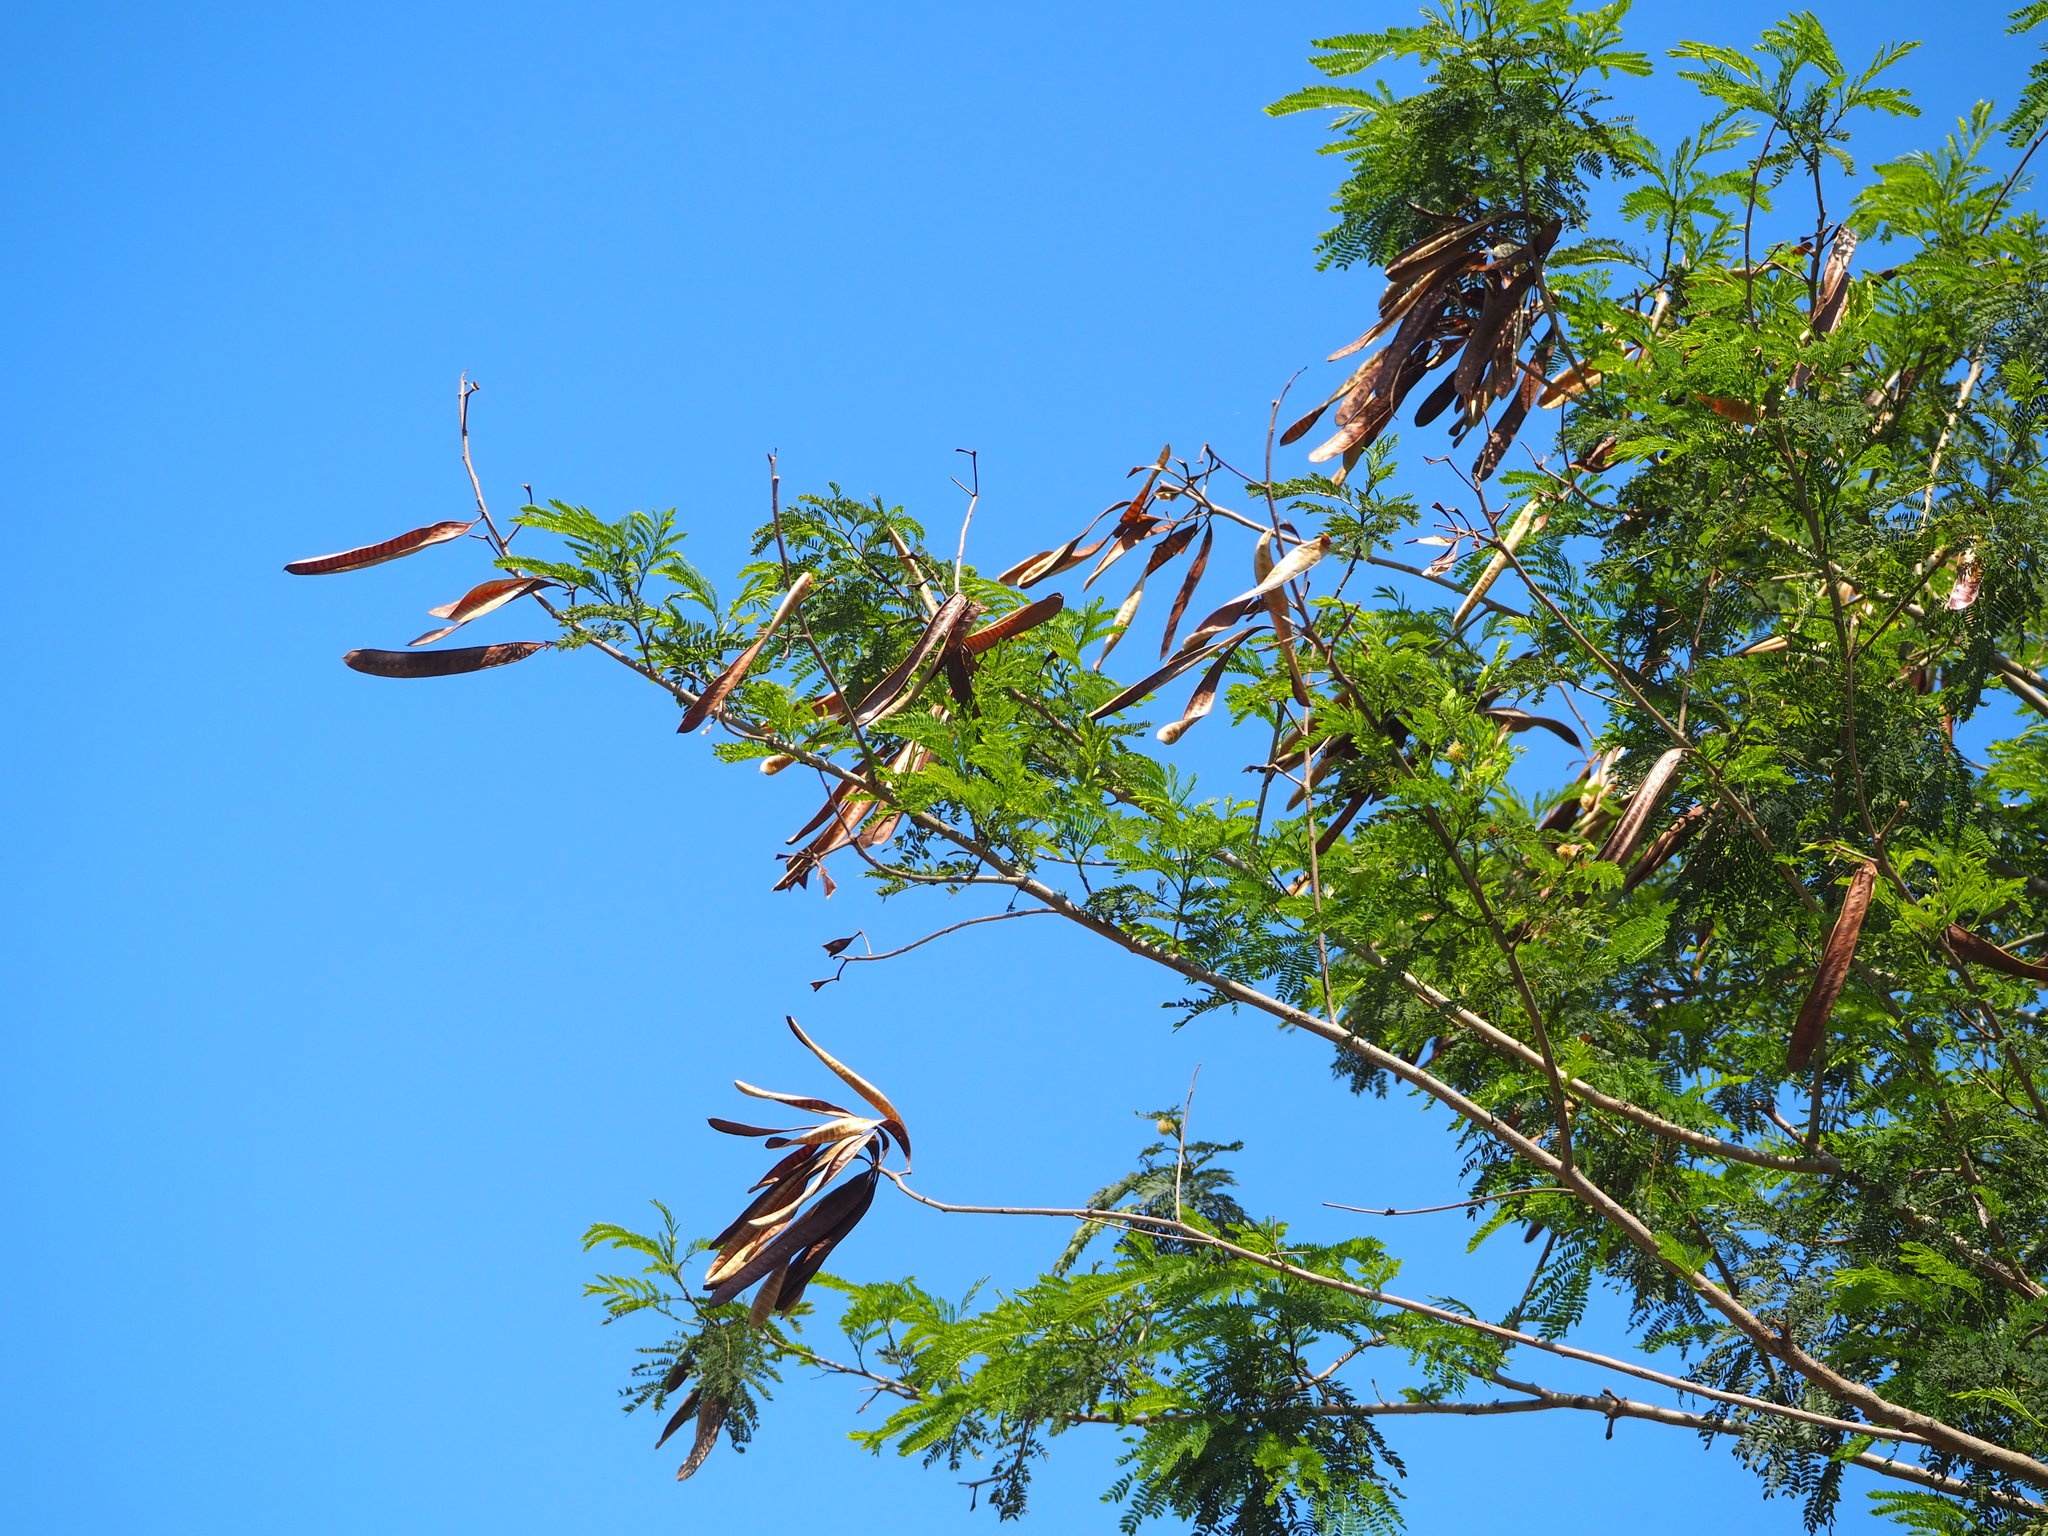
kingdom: Plantae
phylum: Tracheophyta
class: Magnoliopsida
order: Fabales
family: Fabaceae
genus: Leucaena
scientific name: Leucaena leucocephala
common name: White leadtree
